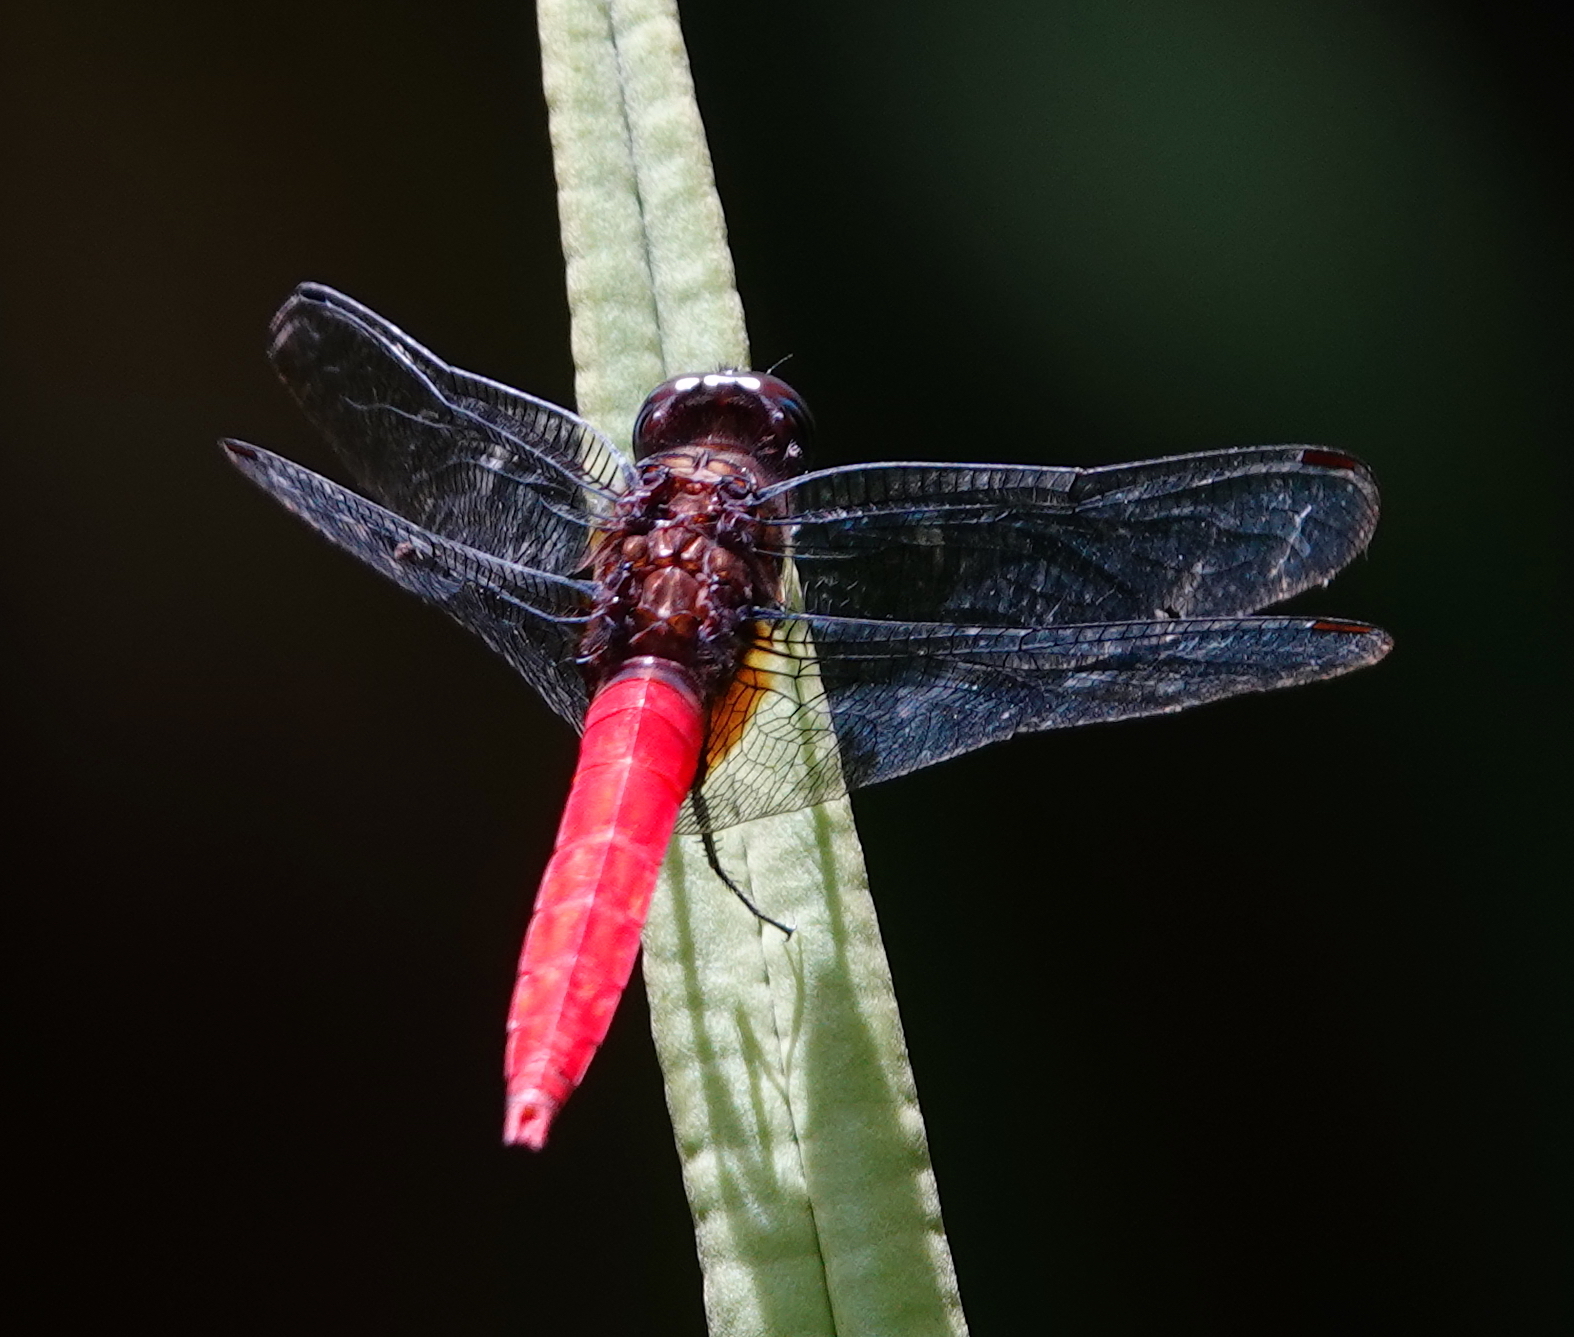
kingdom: Animalia
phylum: Arthropoda
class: Insecta
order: Odonata
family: Libellulidae
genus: Orthetrum
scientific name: Orthetrum chrysis
